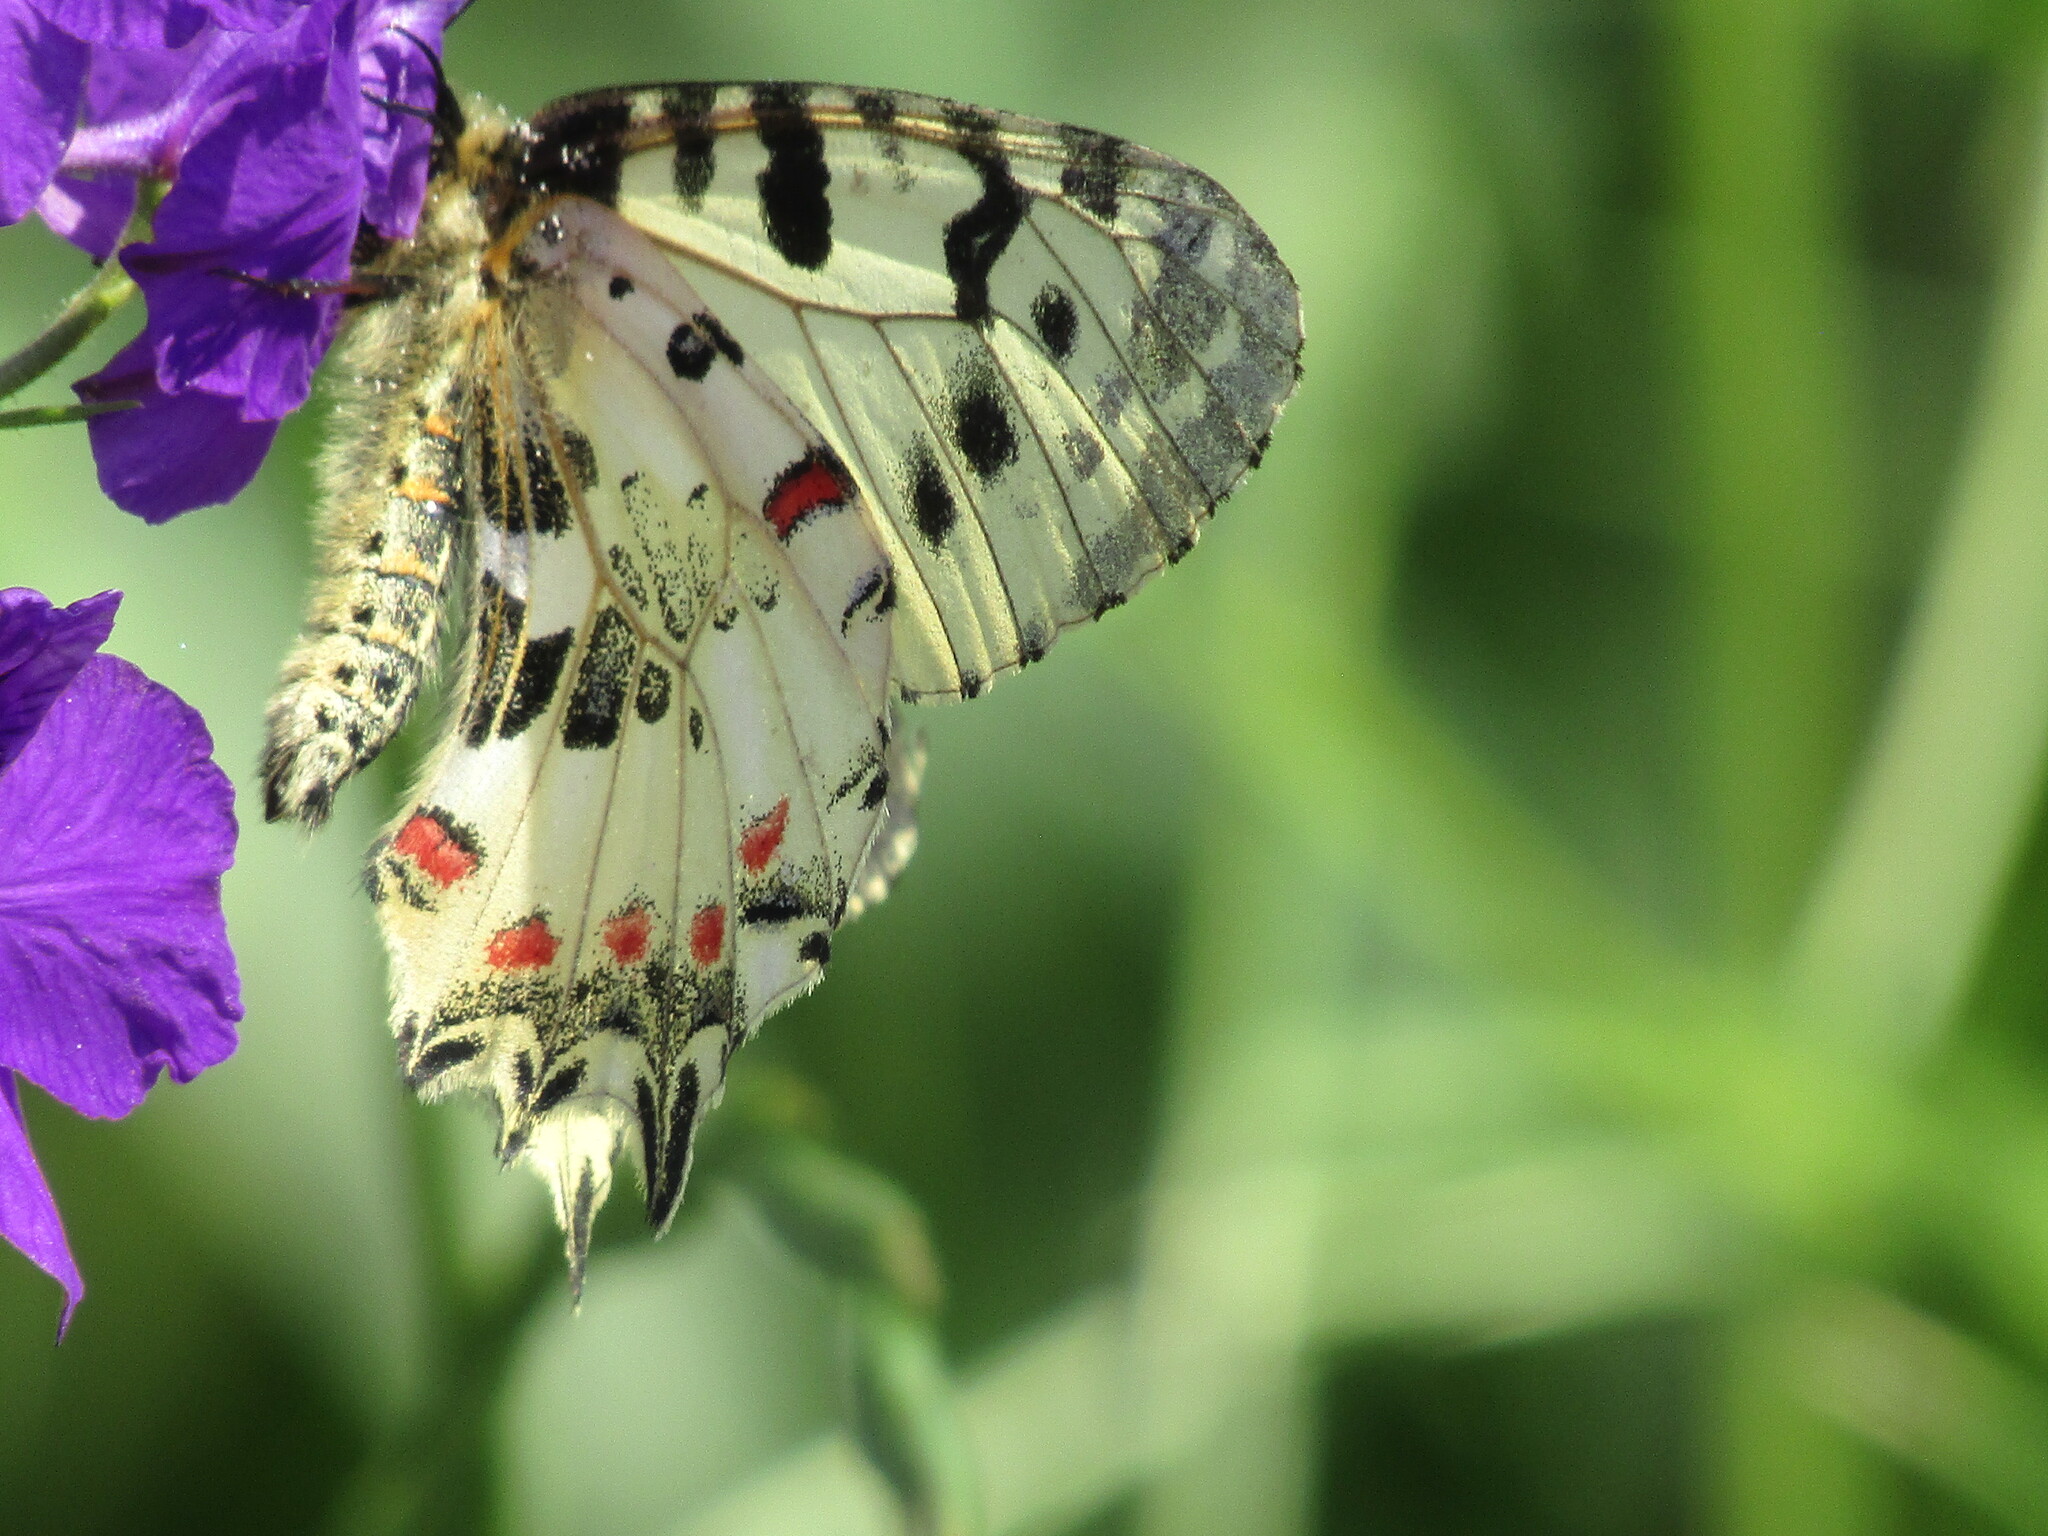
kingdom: Animalia
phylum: Arthropoda
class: Insecta
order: Lepidoptera
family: Papilionidae
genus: Zerynthia
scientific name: Zerynthia cerisy
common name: Eastern festoon
